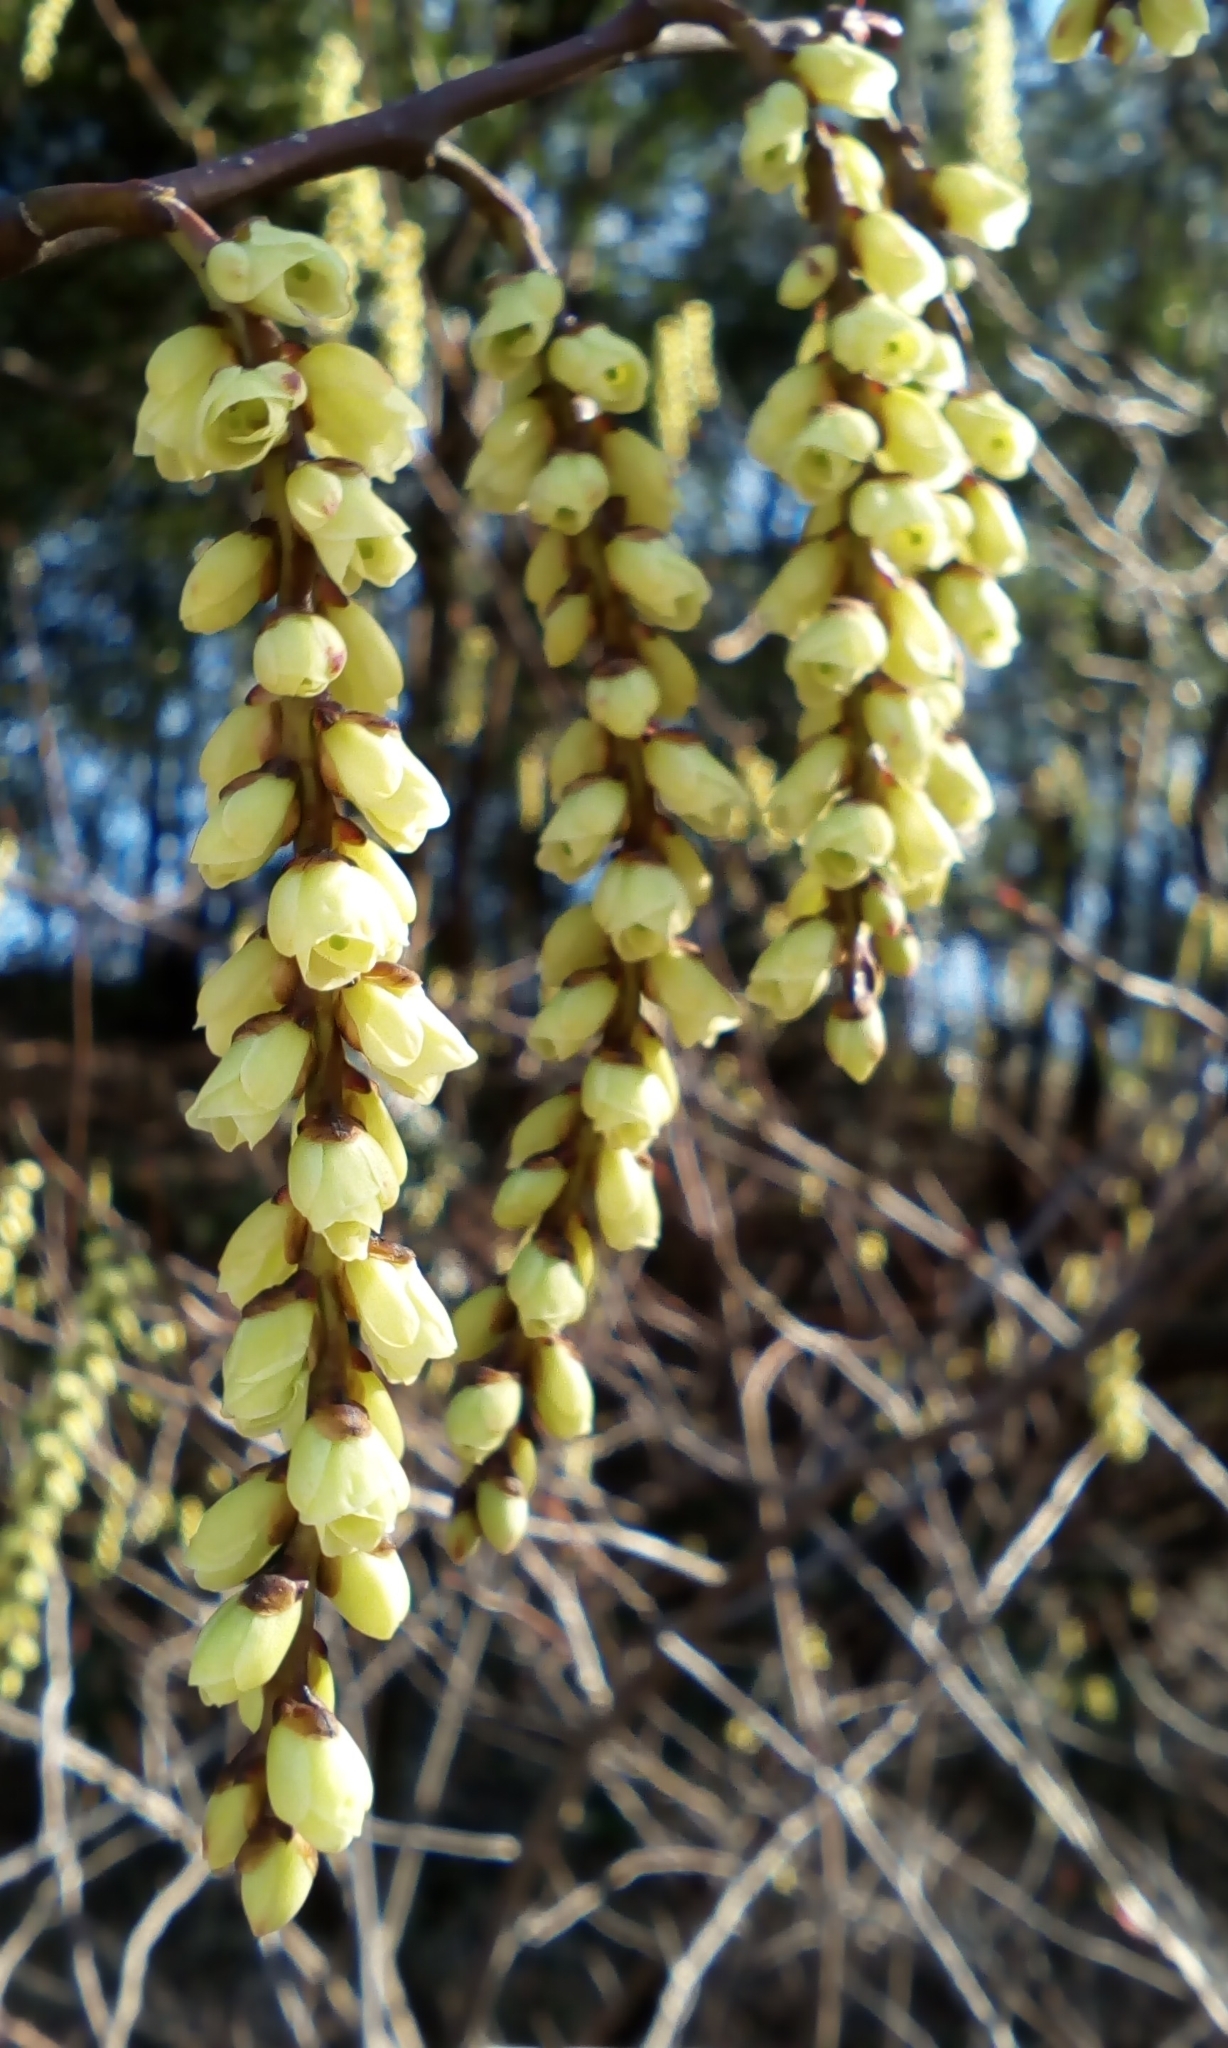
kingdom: Plantae
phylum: Tracheophyta
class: Magnoliopsida
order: Crossosomatales
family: Stachyuraceae
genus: Stachyurus
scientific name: Stachyurus praecox
